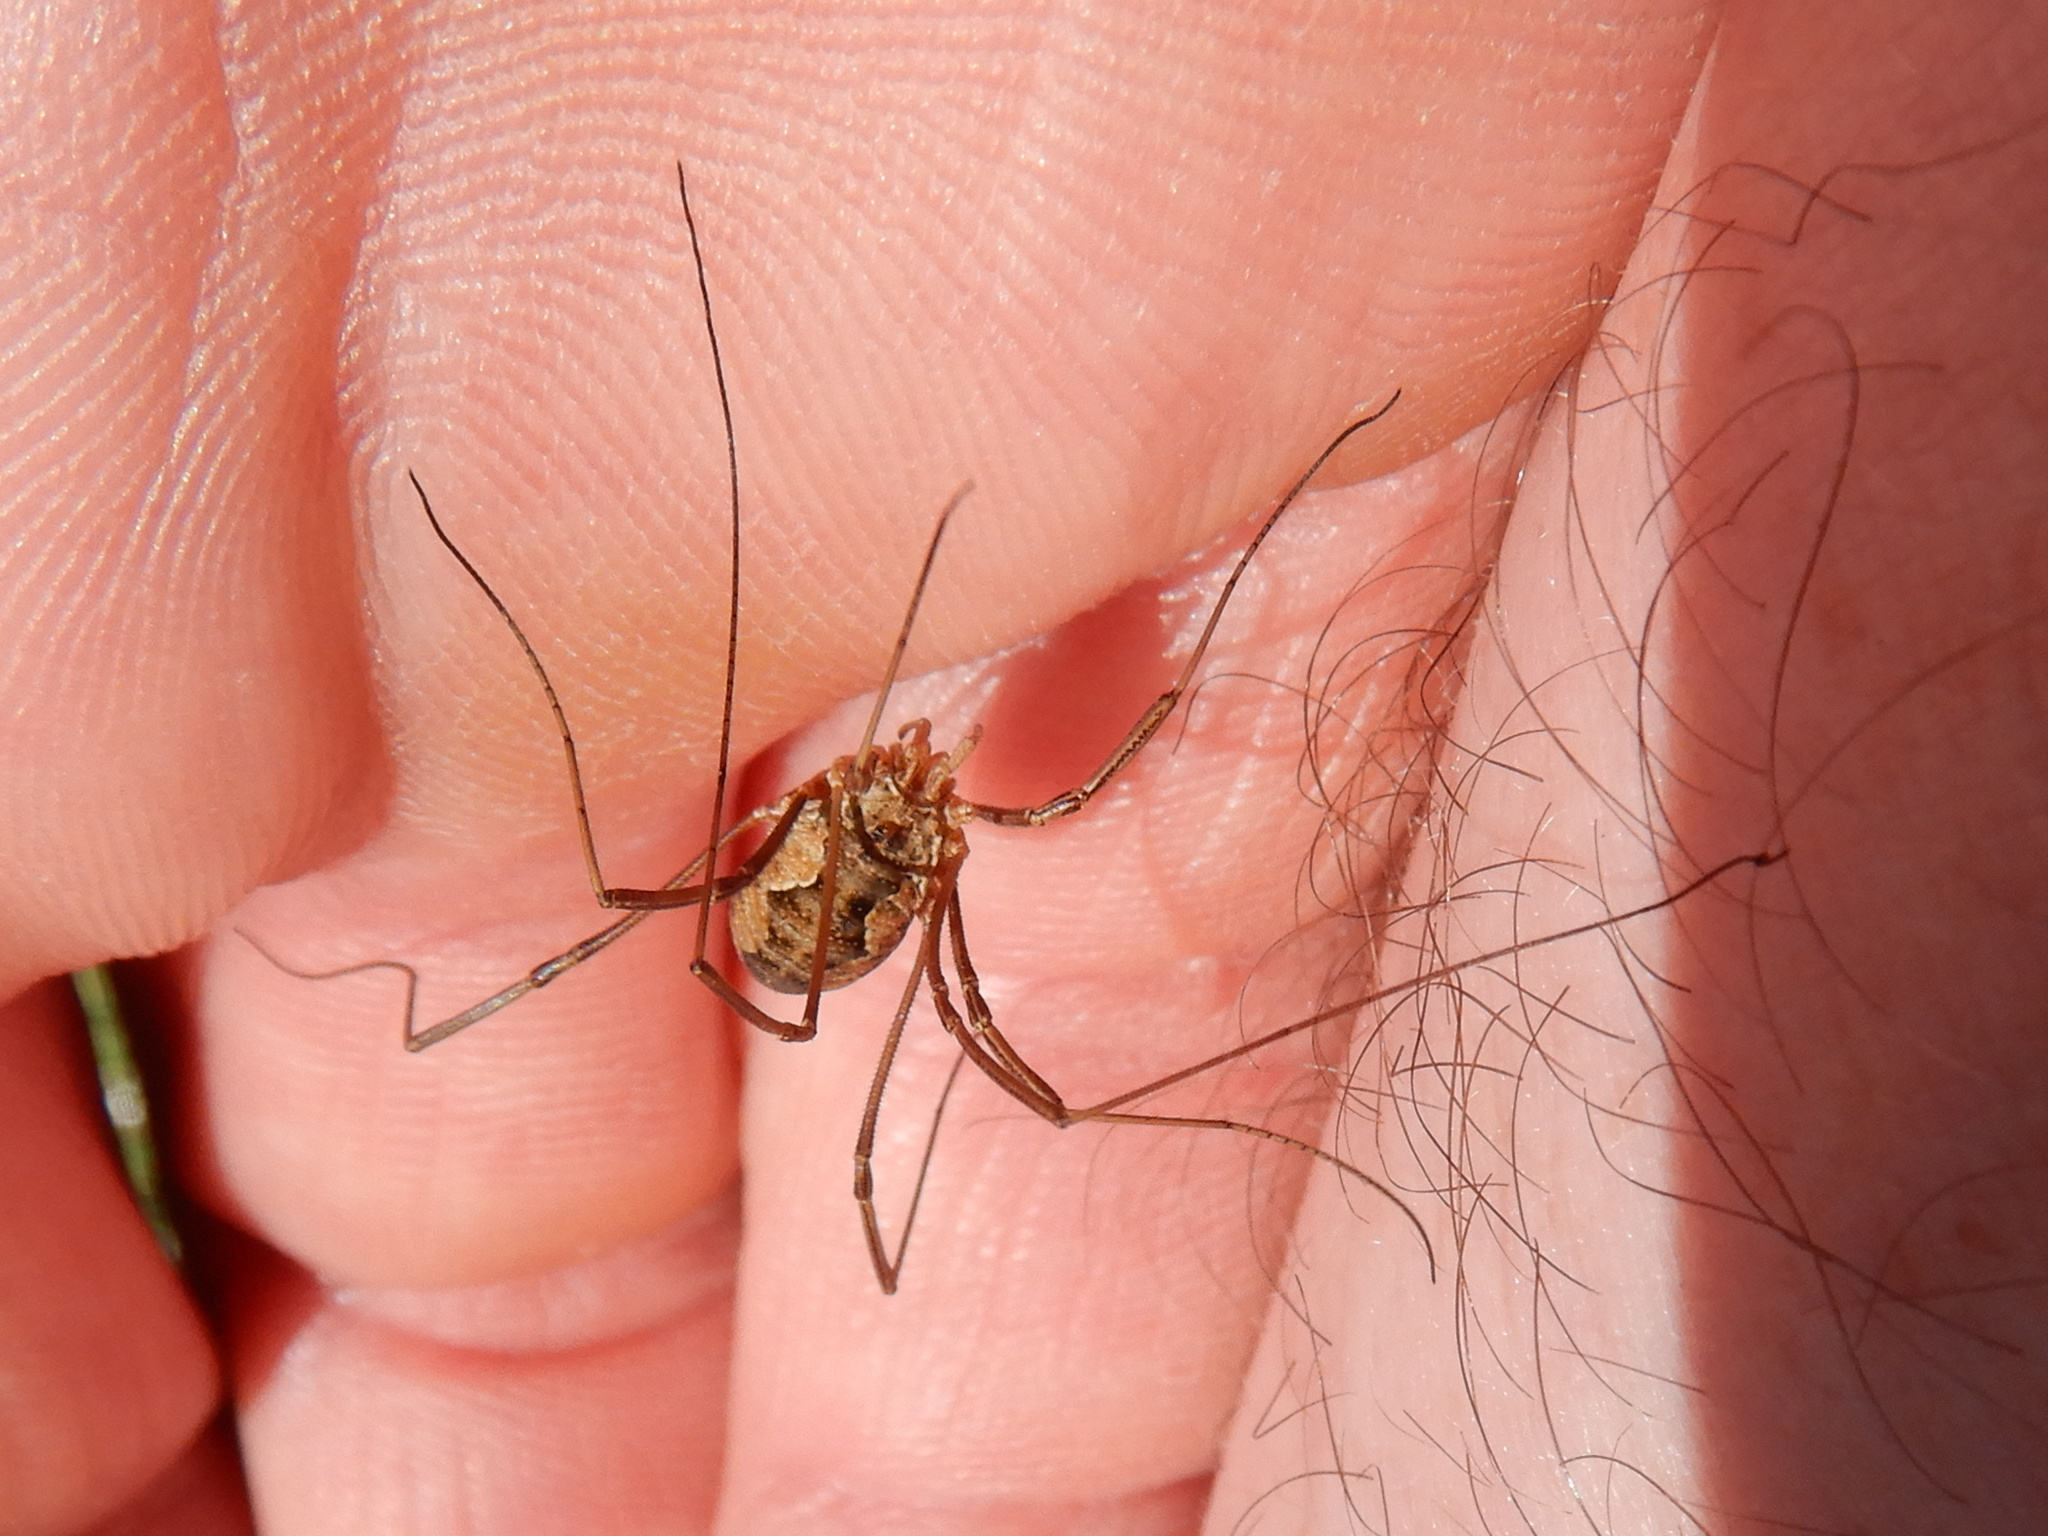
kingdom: Animalia
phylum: Arthropoda
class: Arachnida
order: Opiliones
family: Phalangiidae
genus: Phalangium
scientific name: Phalangium opilio
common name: Daddy longleg
